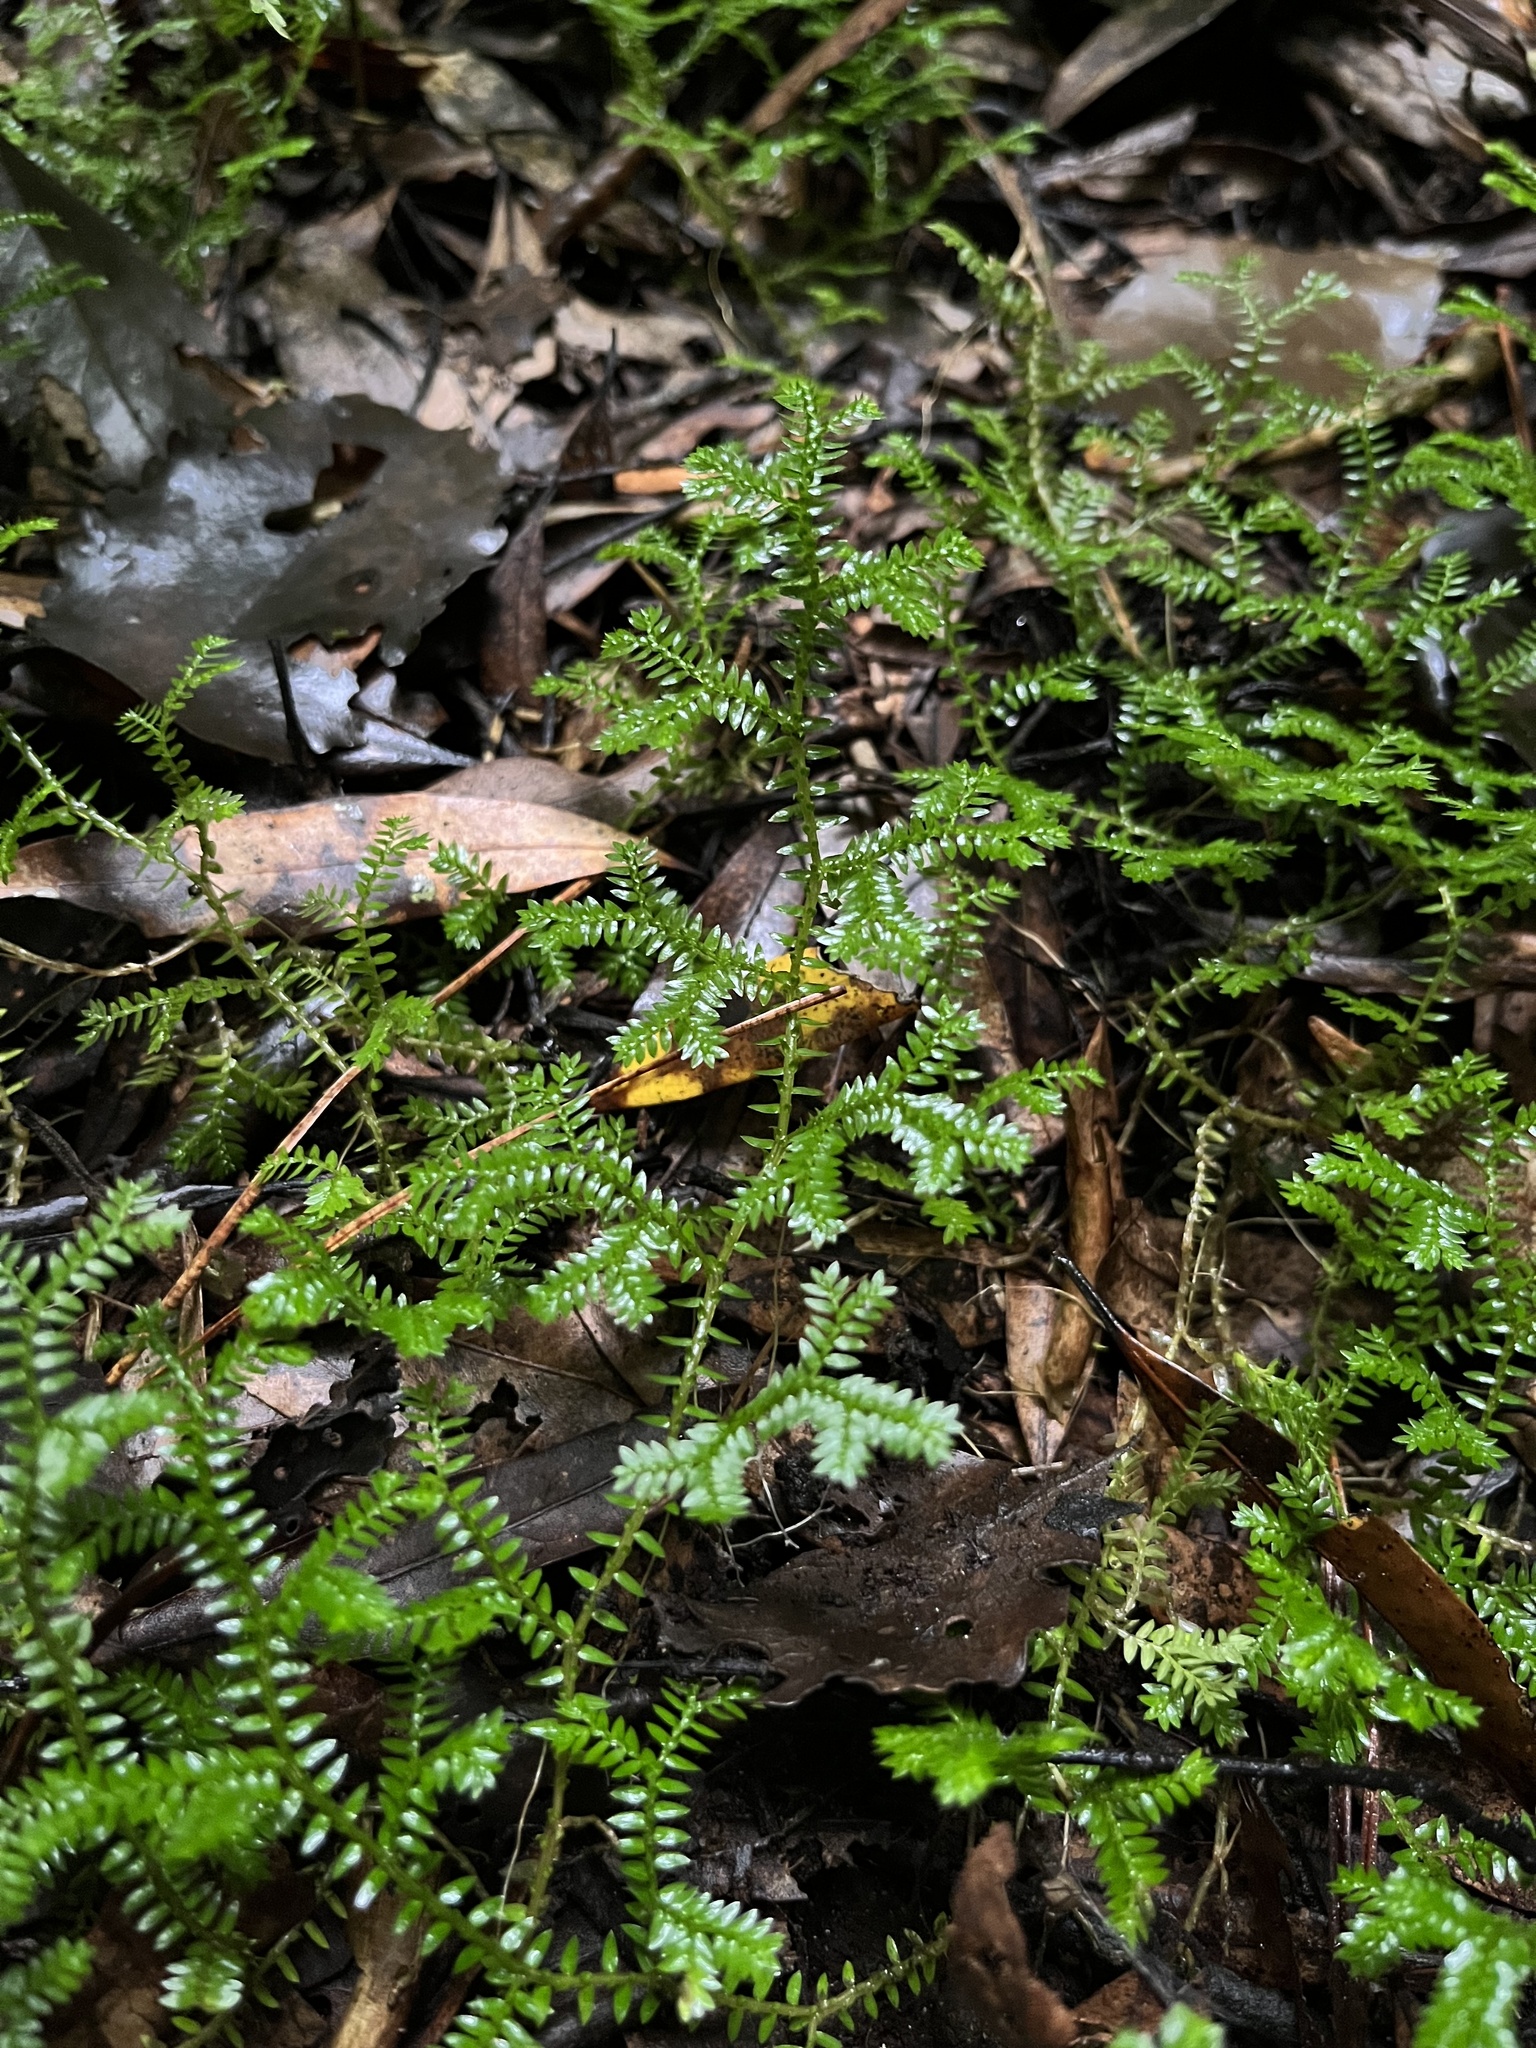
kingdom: Plantae
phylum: Tracheophyta
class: Lycopodiopsida
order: Selaginellales
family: Selaginellaceae
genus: Selaginella
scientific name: Selaginella kraussiana
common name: Krauss' spikemoss
